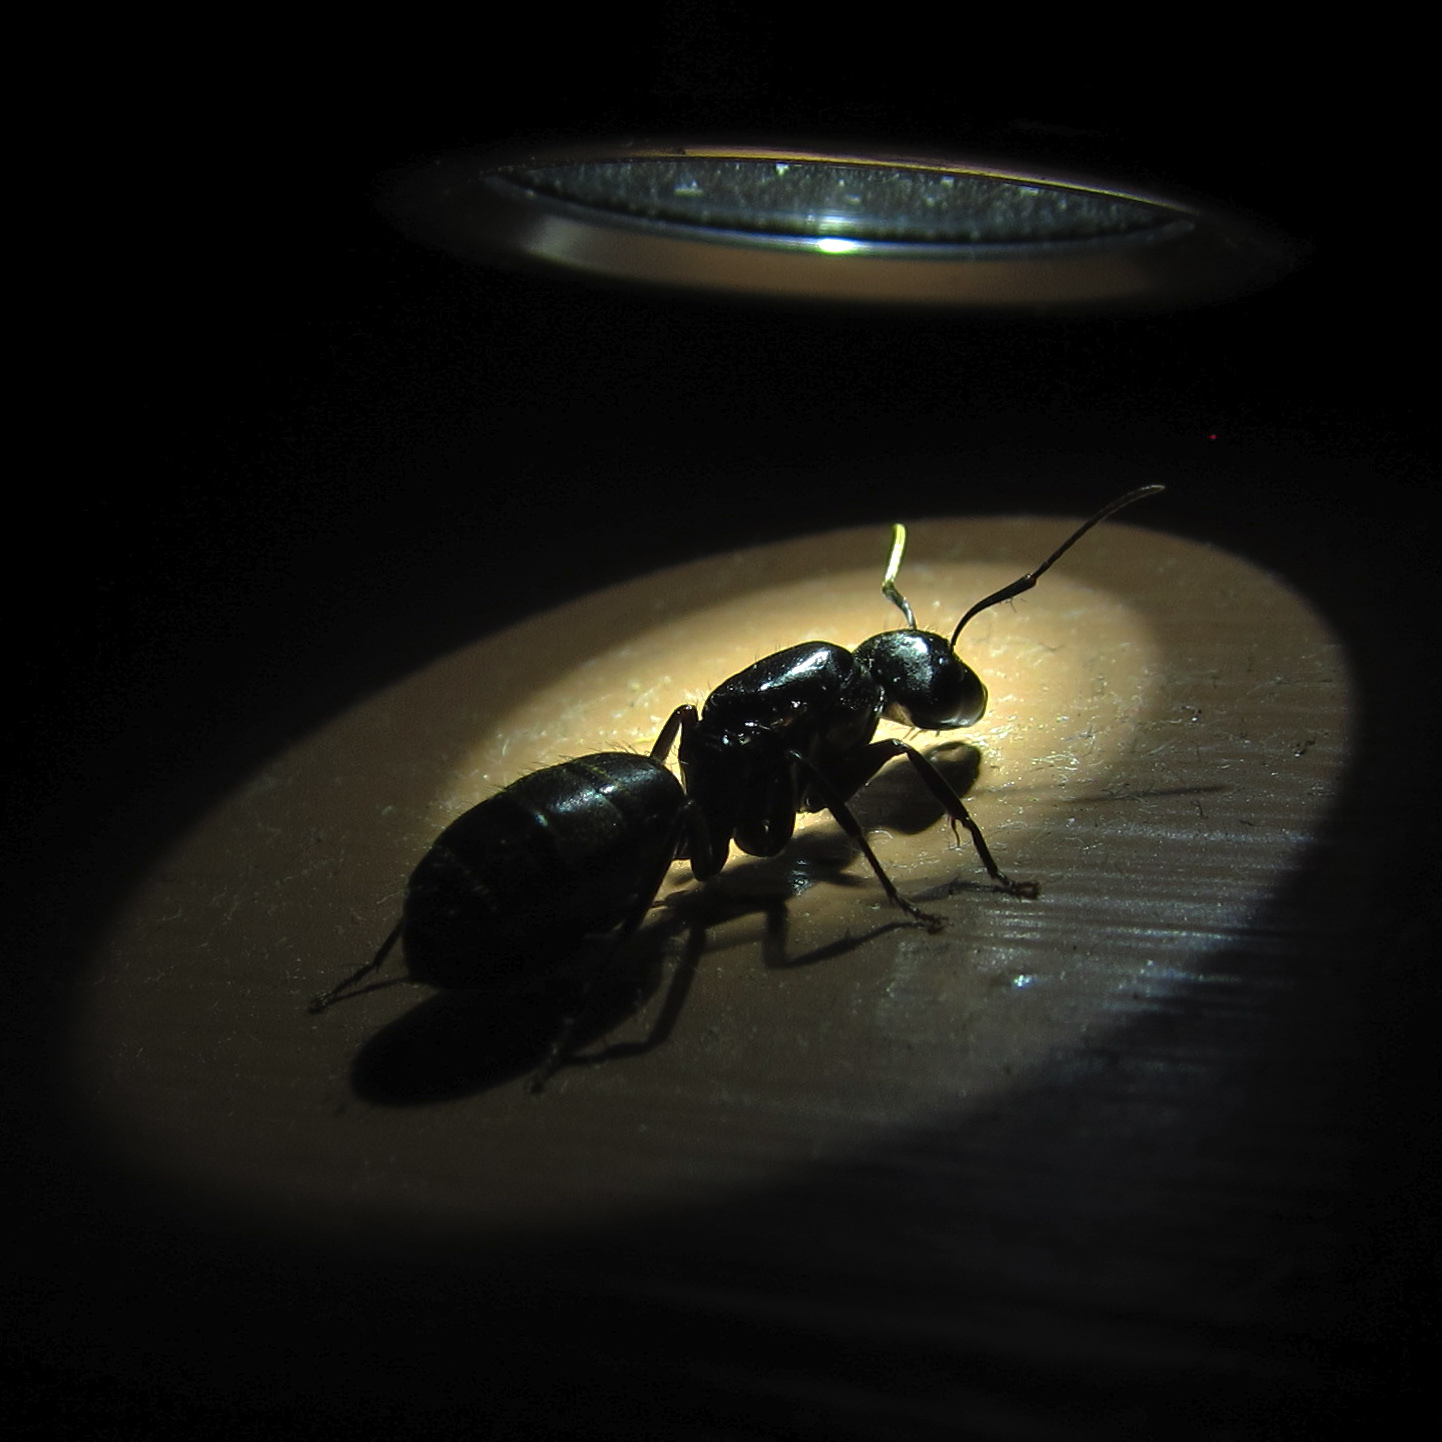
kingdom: Animalia
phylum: Arthropoda
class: Insecta
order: Hymenoptera
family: Formicidae
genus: Camponotus
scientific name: Camponotus pennsylvanicus
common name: Black carpenter ant
